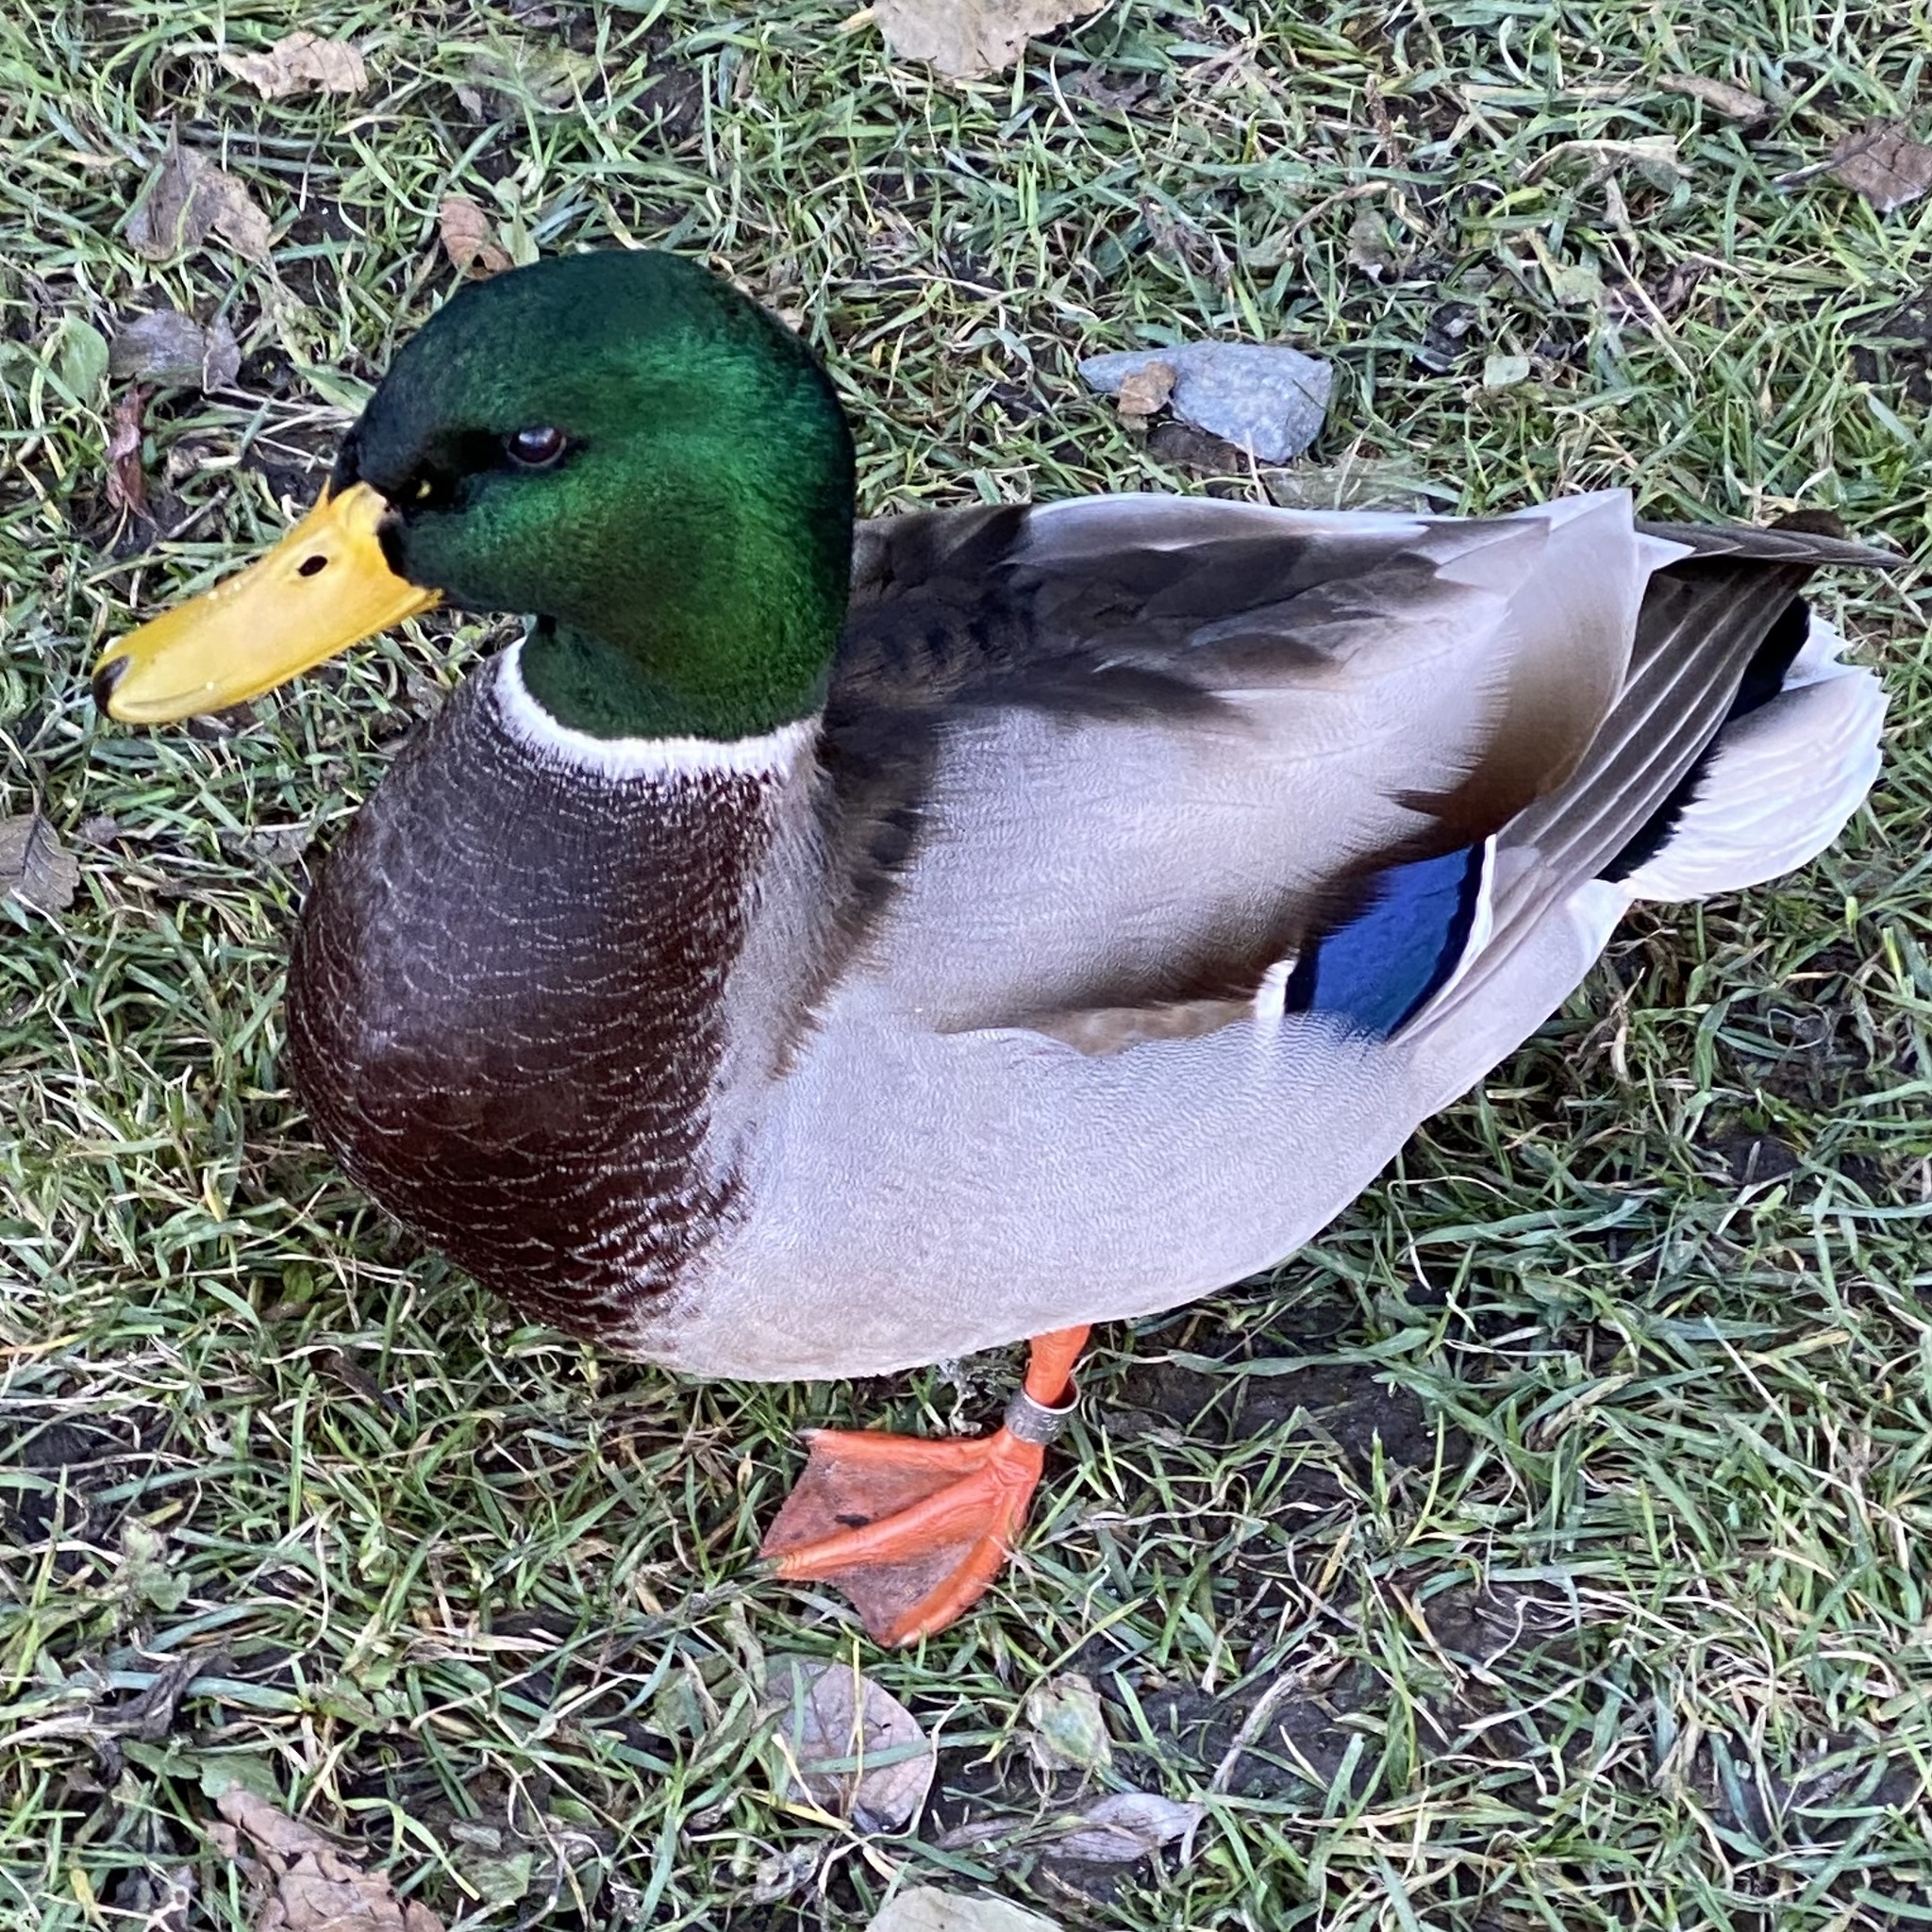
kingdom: Animalia
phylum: Chordata
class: Aves
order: Anseriformes
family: Anatidae
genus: Anas
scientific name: Anas platyrhynchos
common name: Mallard
